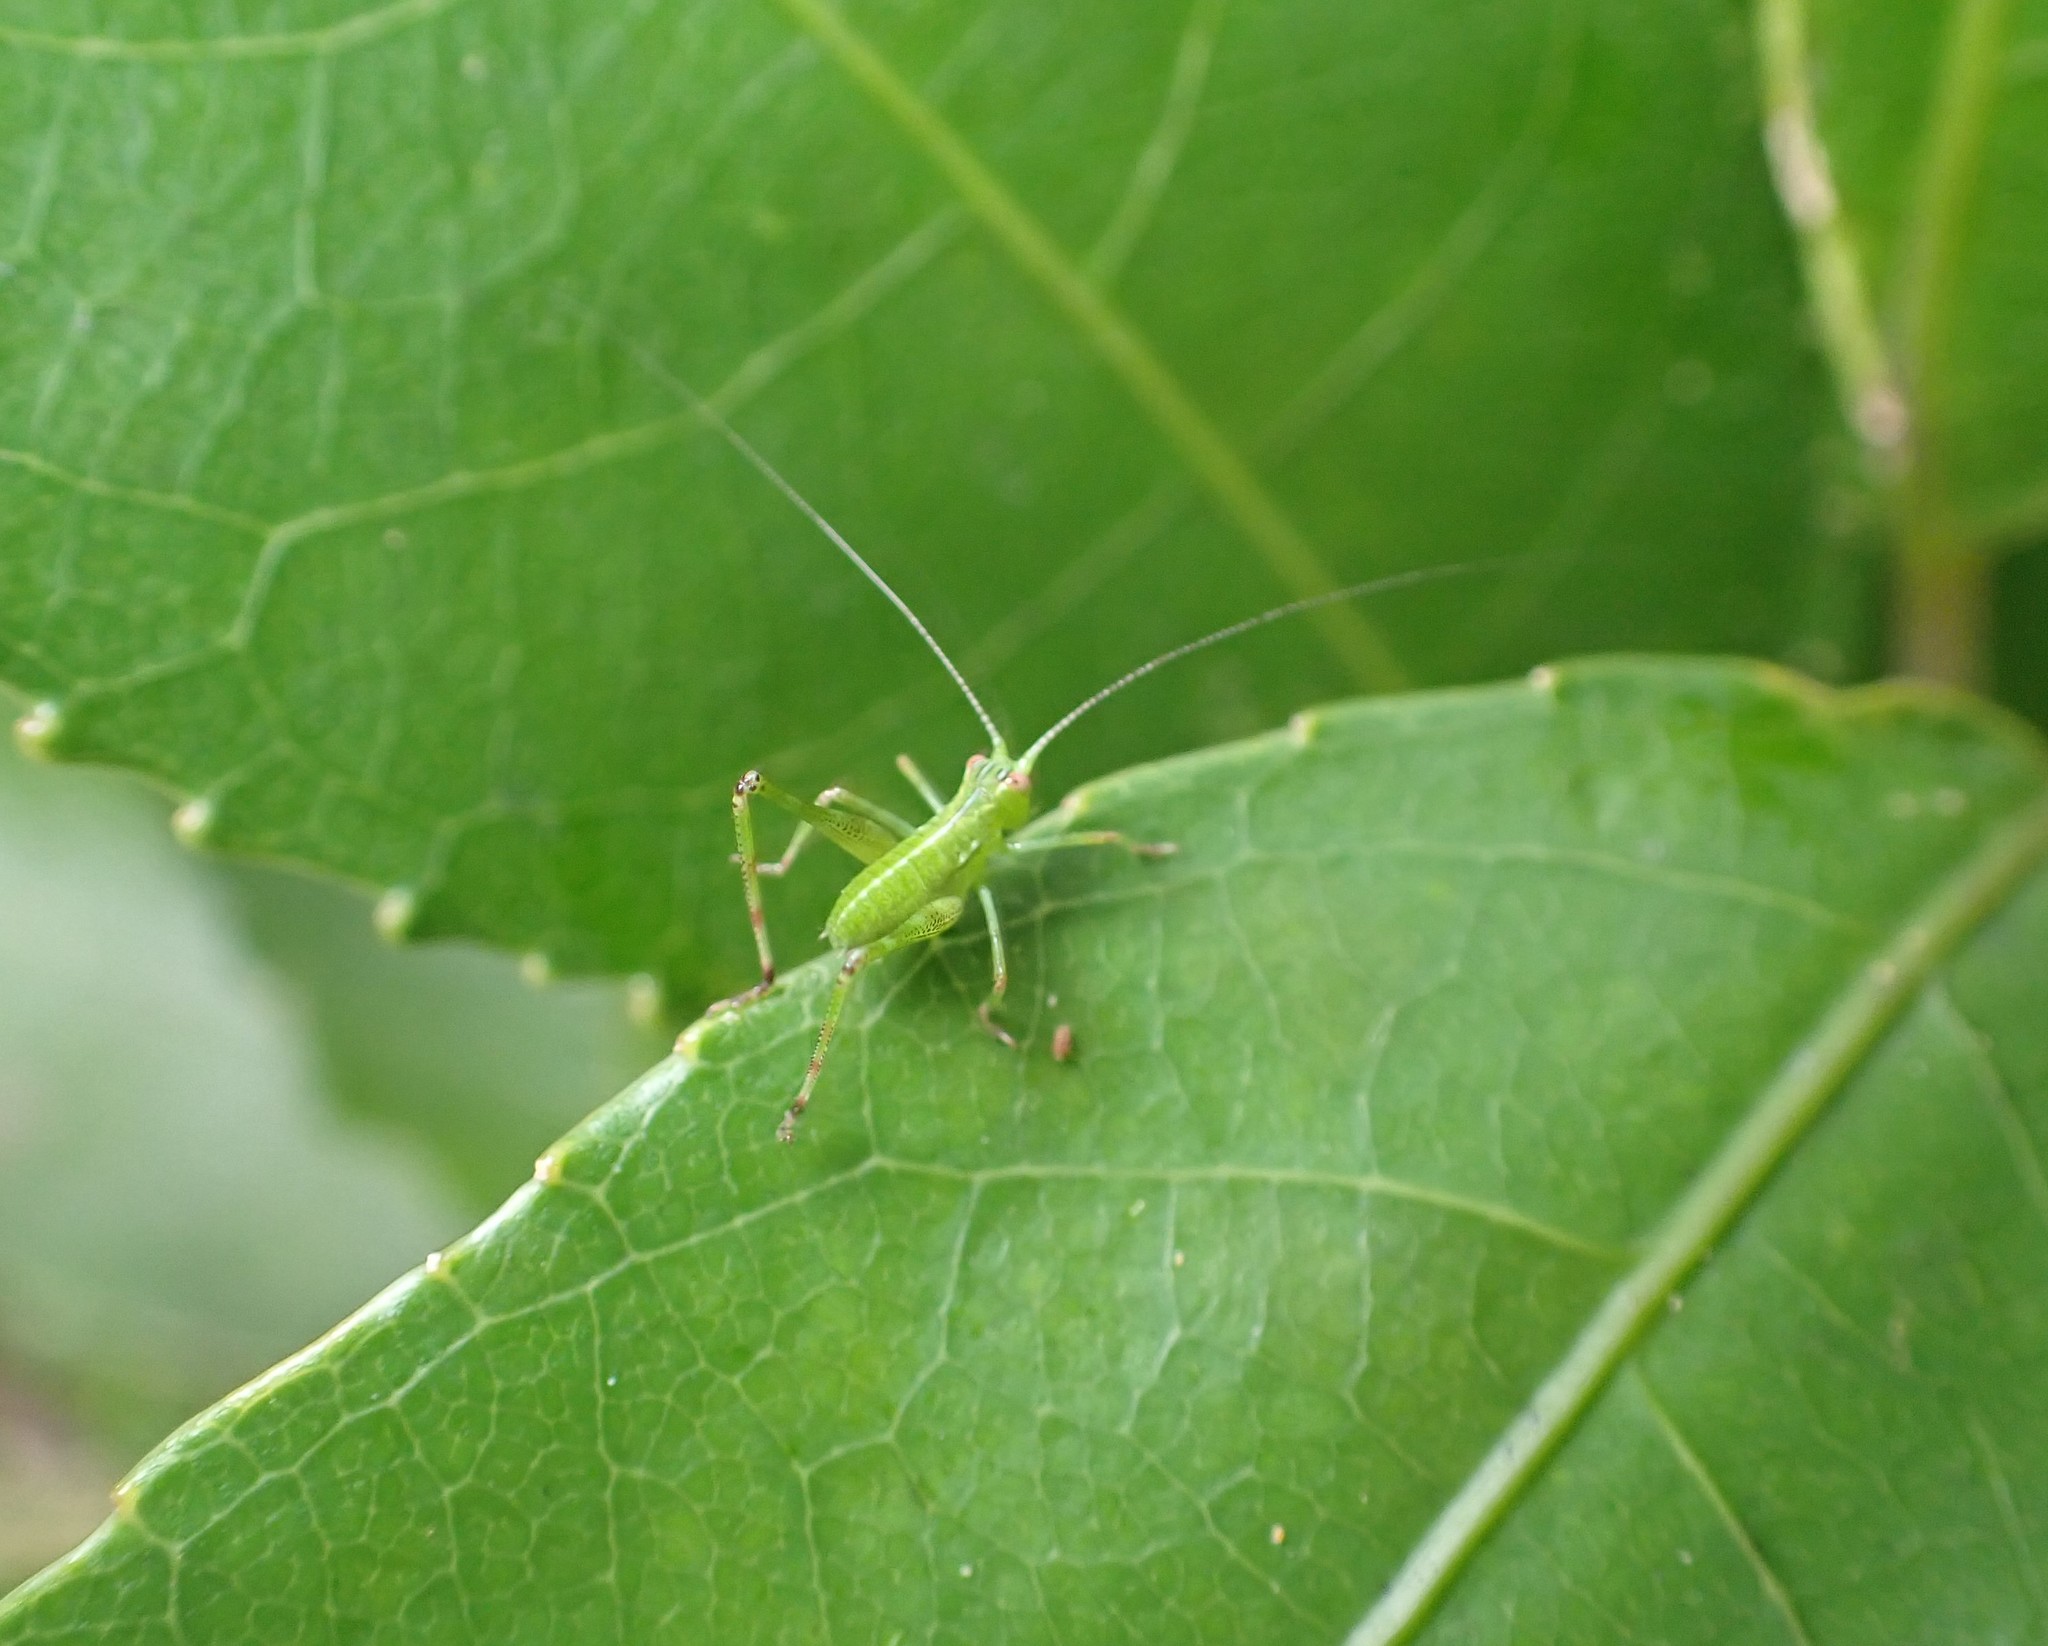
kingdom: Animalia
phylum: Arthropoda
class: Insecta
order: Orthoptera
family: Tettigoniidae
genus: Caedicia
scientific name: Caedicia simplex
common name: Common garden katydid
